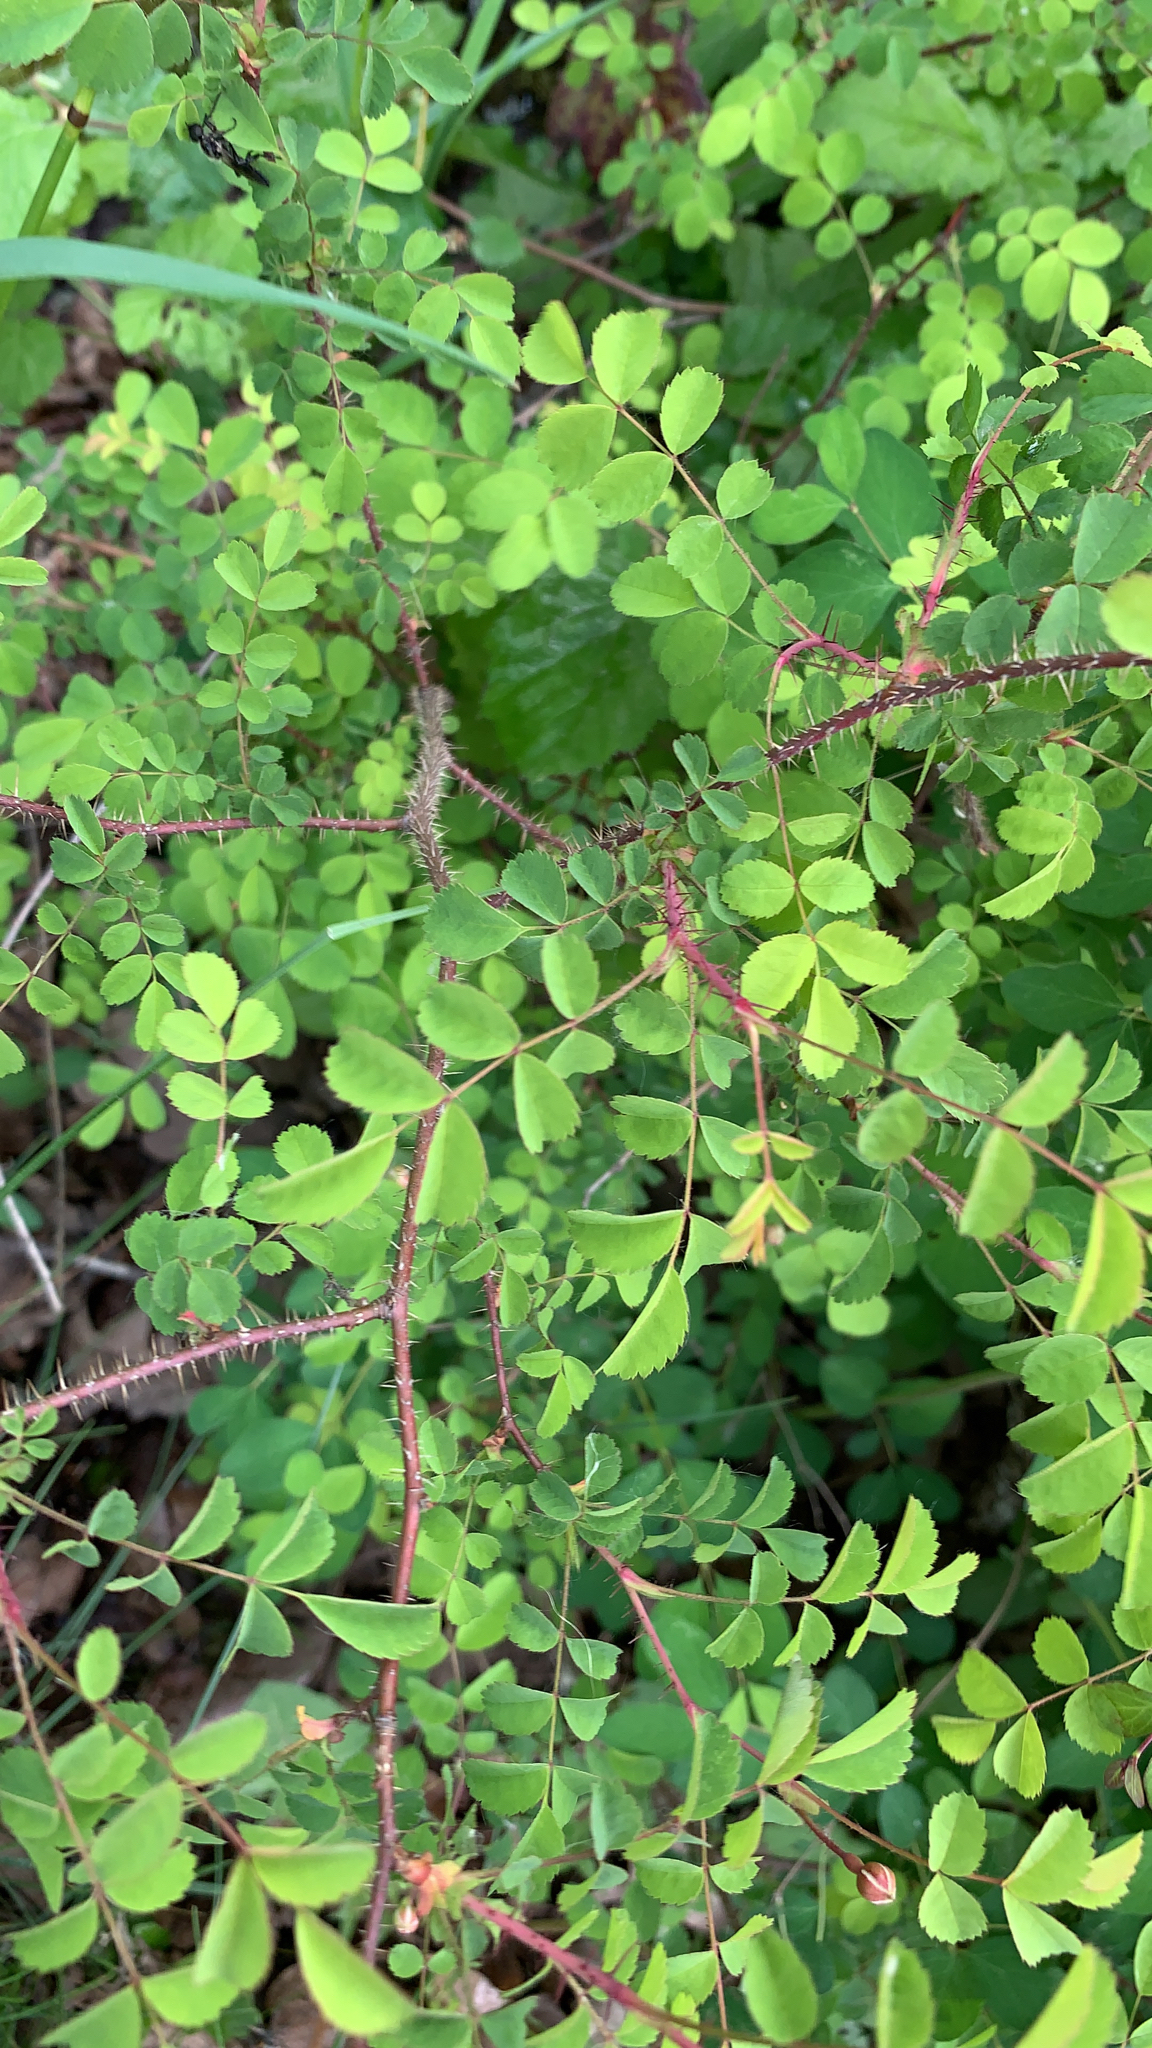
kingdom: Plantae
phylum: Tracheophyta
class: Magnoliopsida
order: Rosales
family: Rosaceae
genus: Rosa
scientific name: Rosa gymnocarpa
